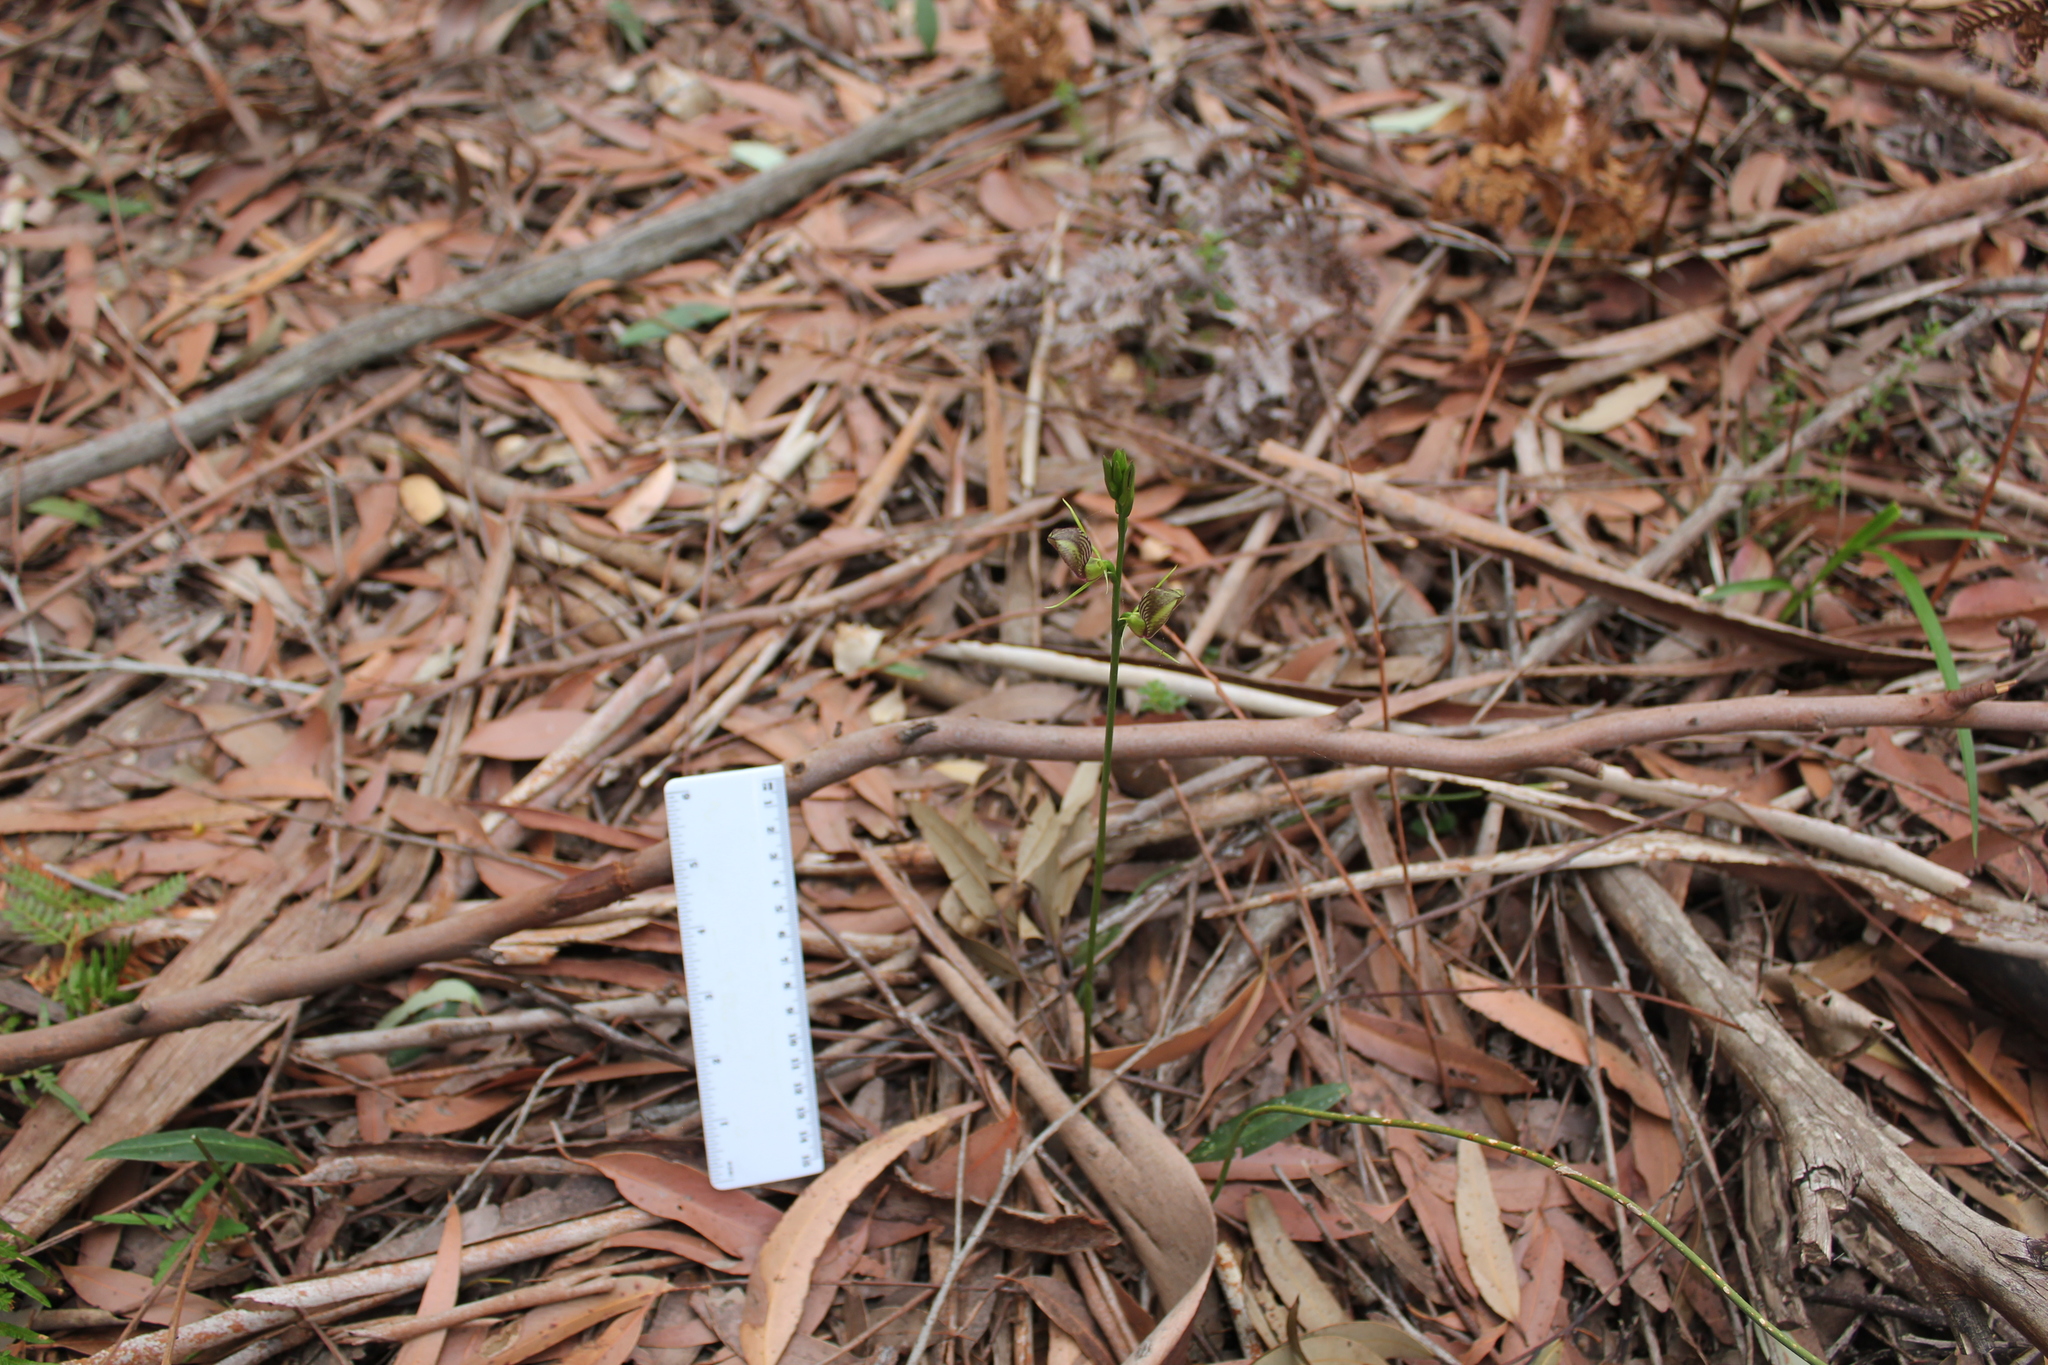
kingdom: Plantae
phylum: Tracheophyta
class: Liliopsida
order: Asparagales
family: Orchidaceae
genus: Cryptostylis
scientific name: Cryptostylis erecta
